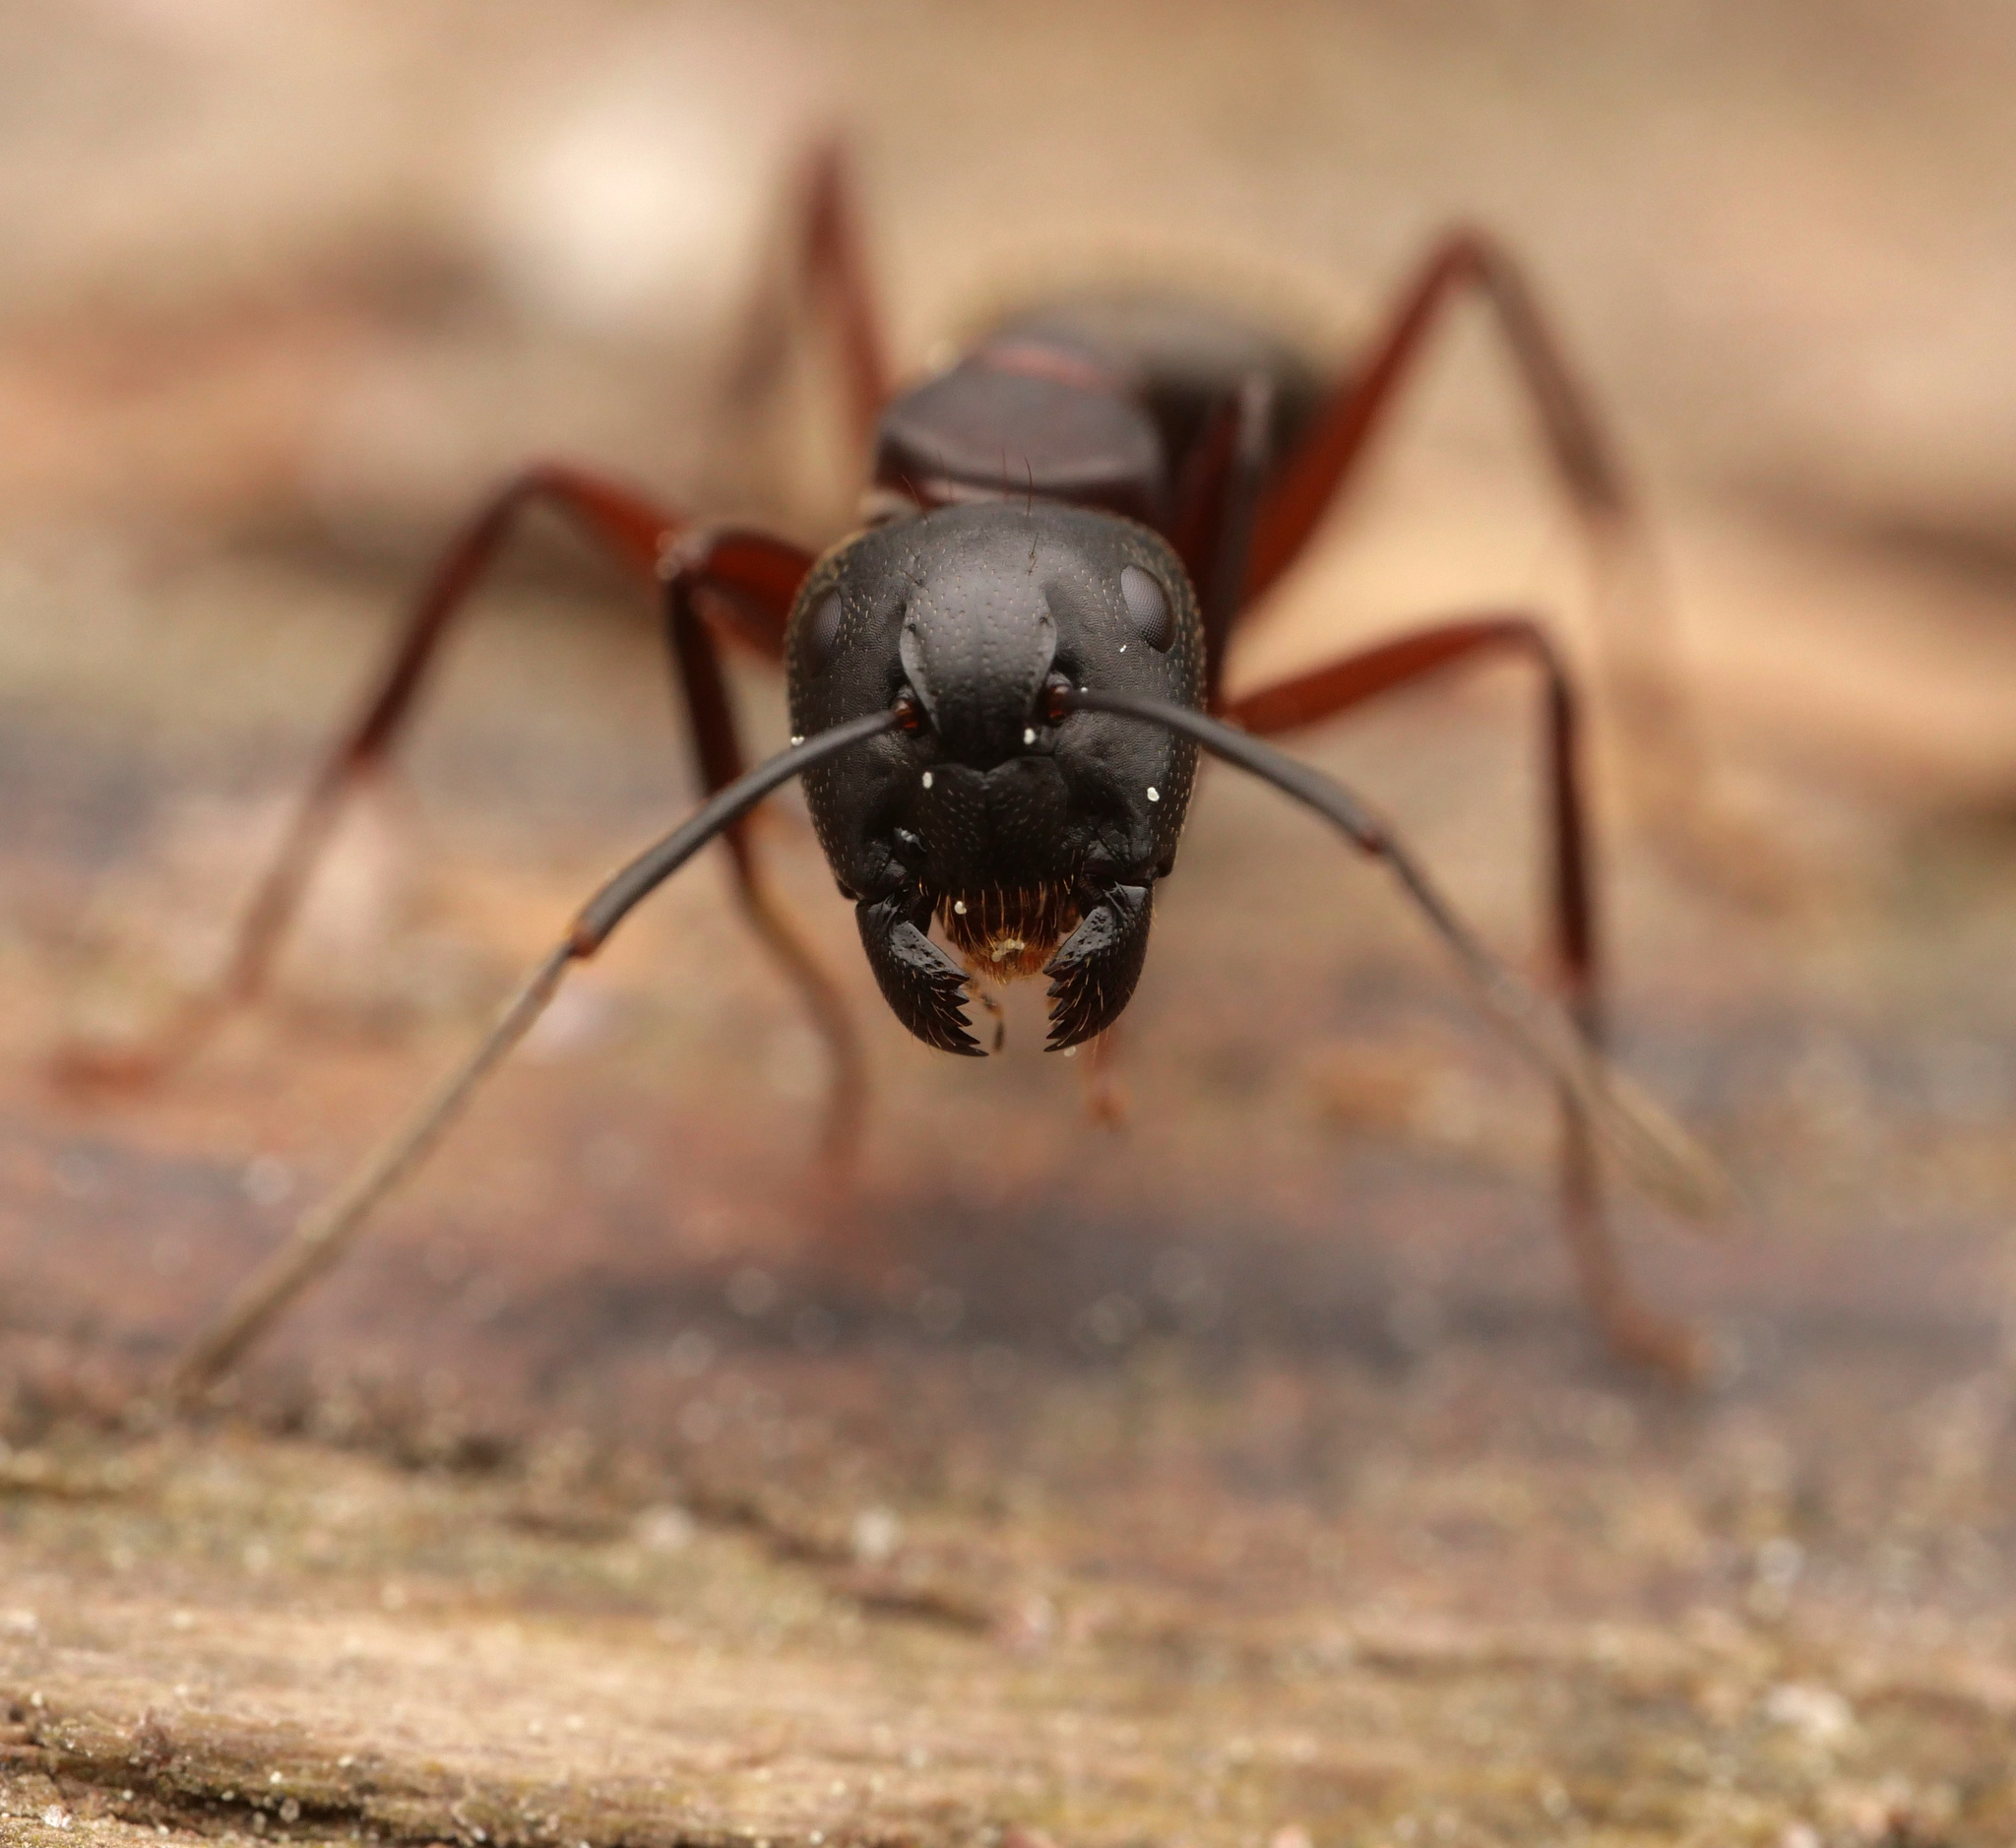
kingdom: Animalia
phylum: Arthropoda
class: Insecta
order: Hymenoptera
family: Formicidae
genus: Camponotus
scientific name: Camponotus herculeanus
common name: Hercules ant
